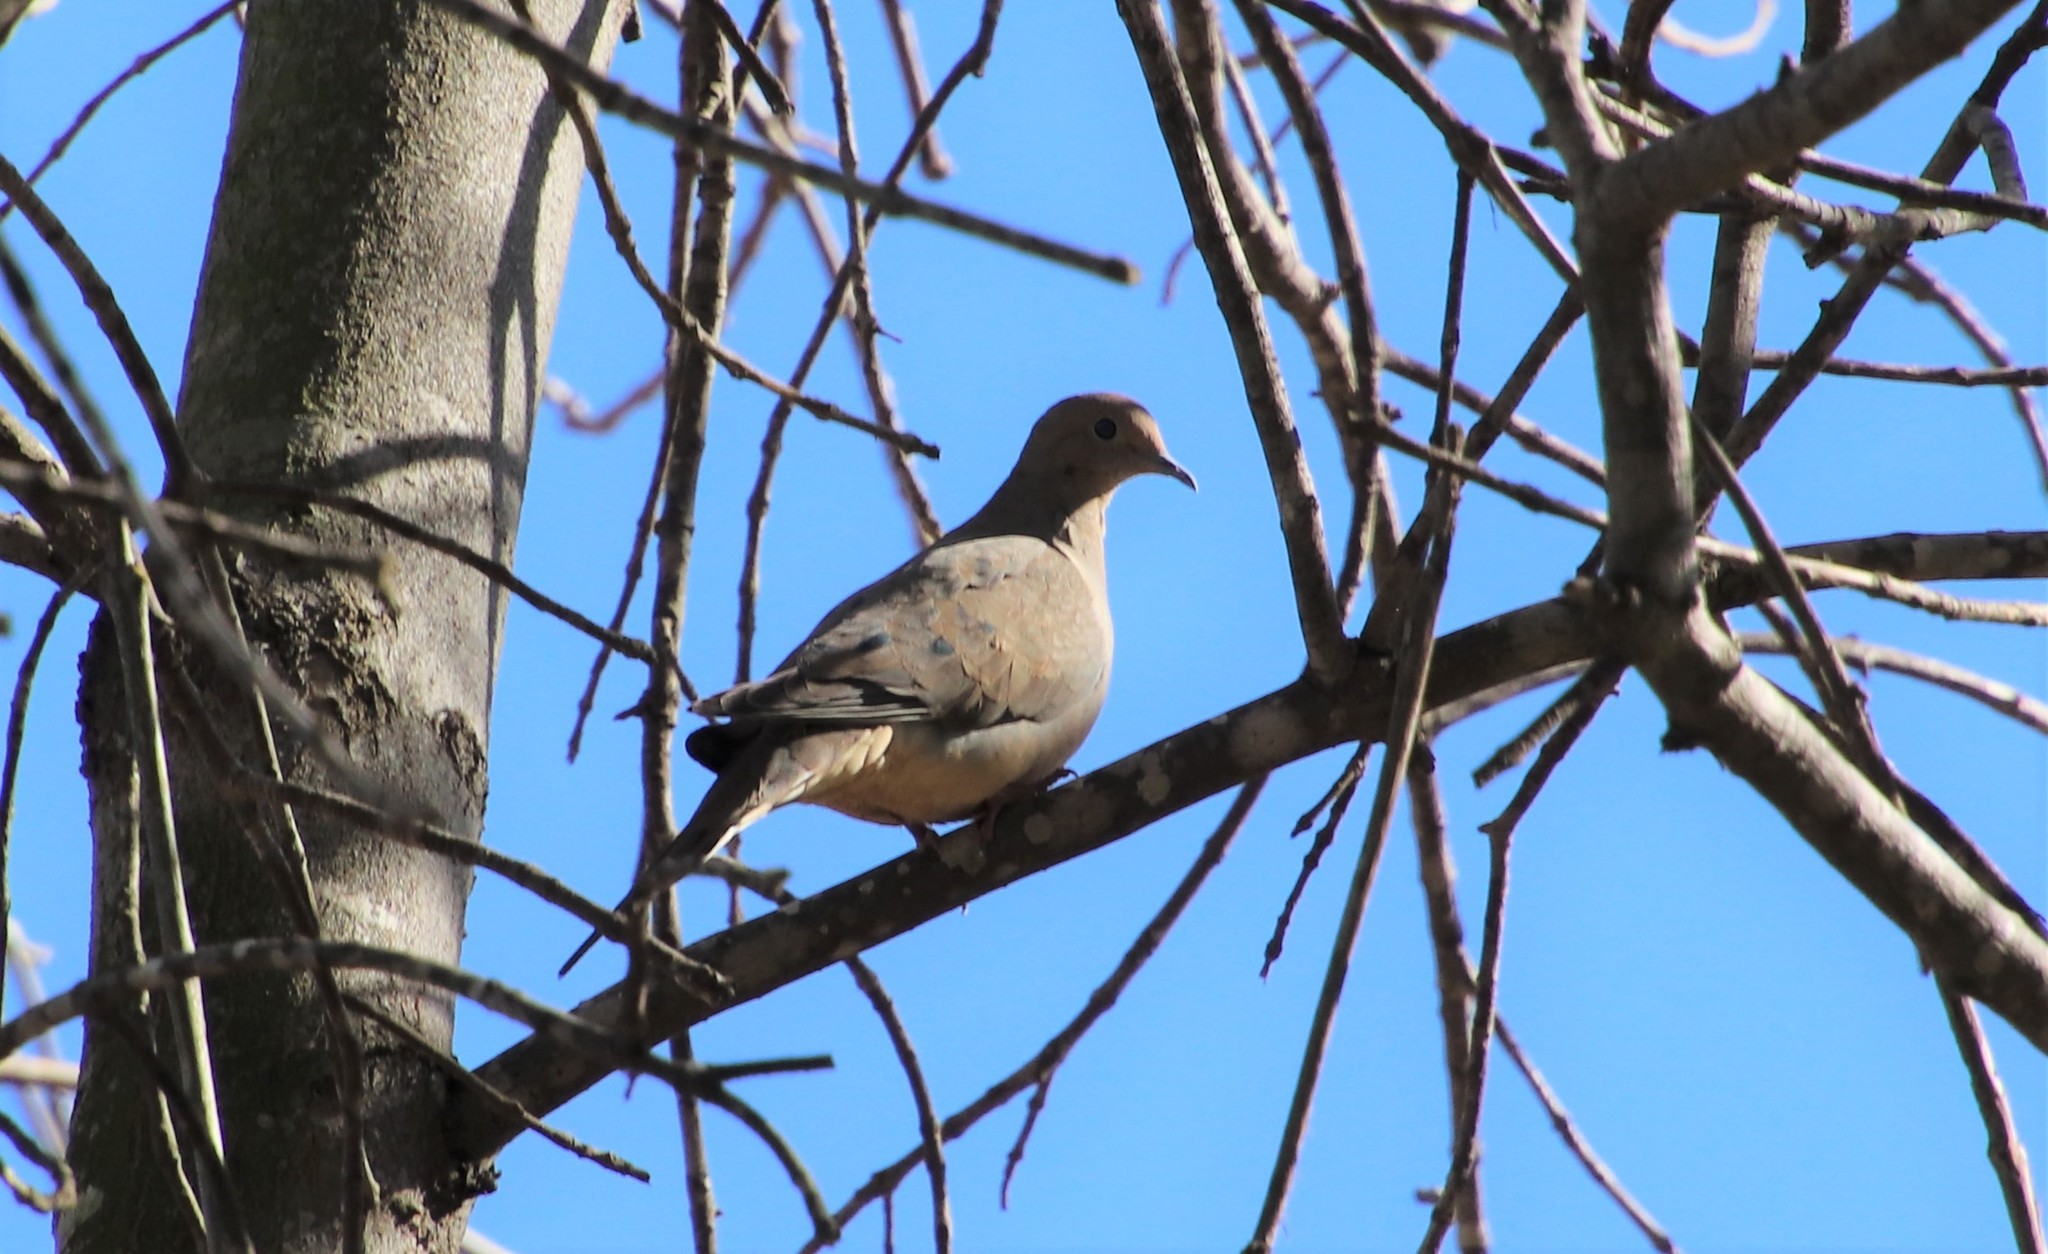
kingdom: Animalia
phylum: Chordata
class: Aves
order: Columbiformes
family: Columbidae
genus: Zenaida
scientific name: Zenaida macroura
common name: Mourning dove
